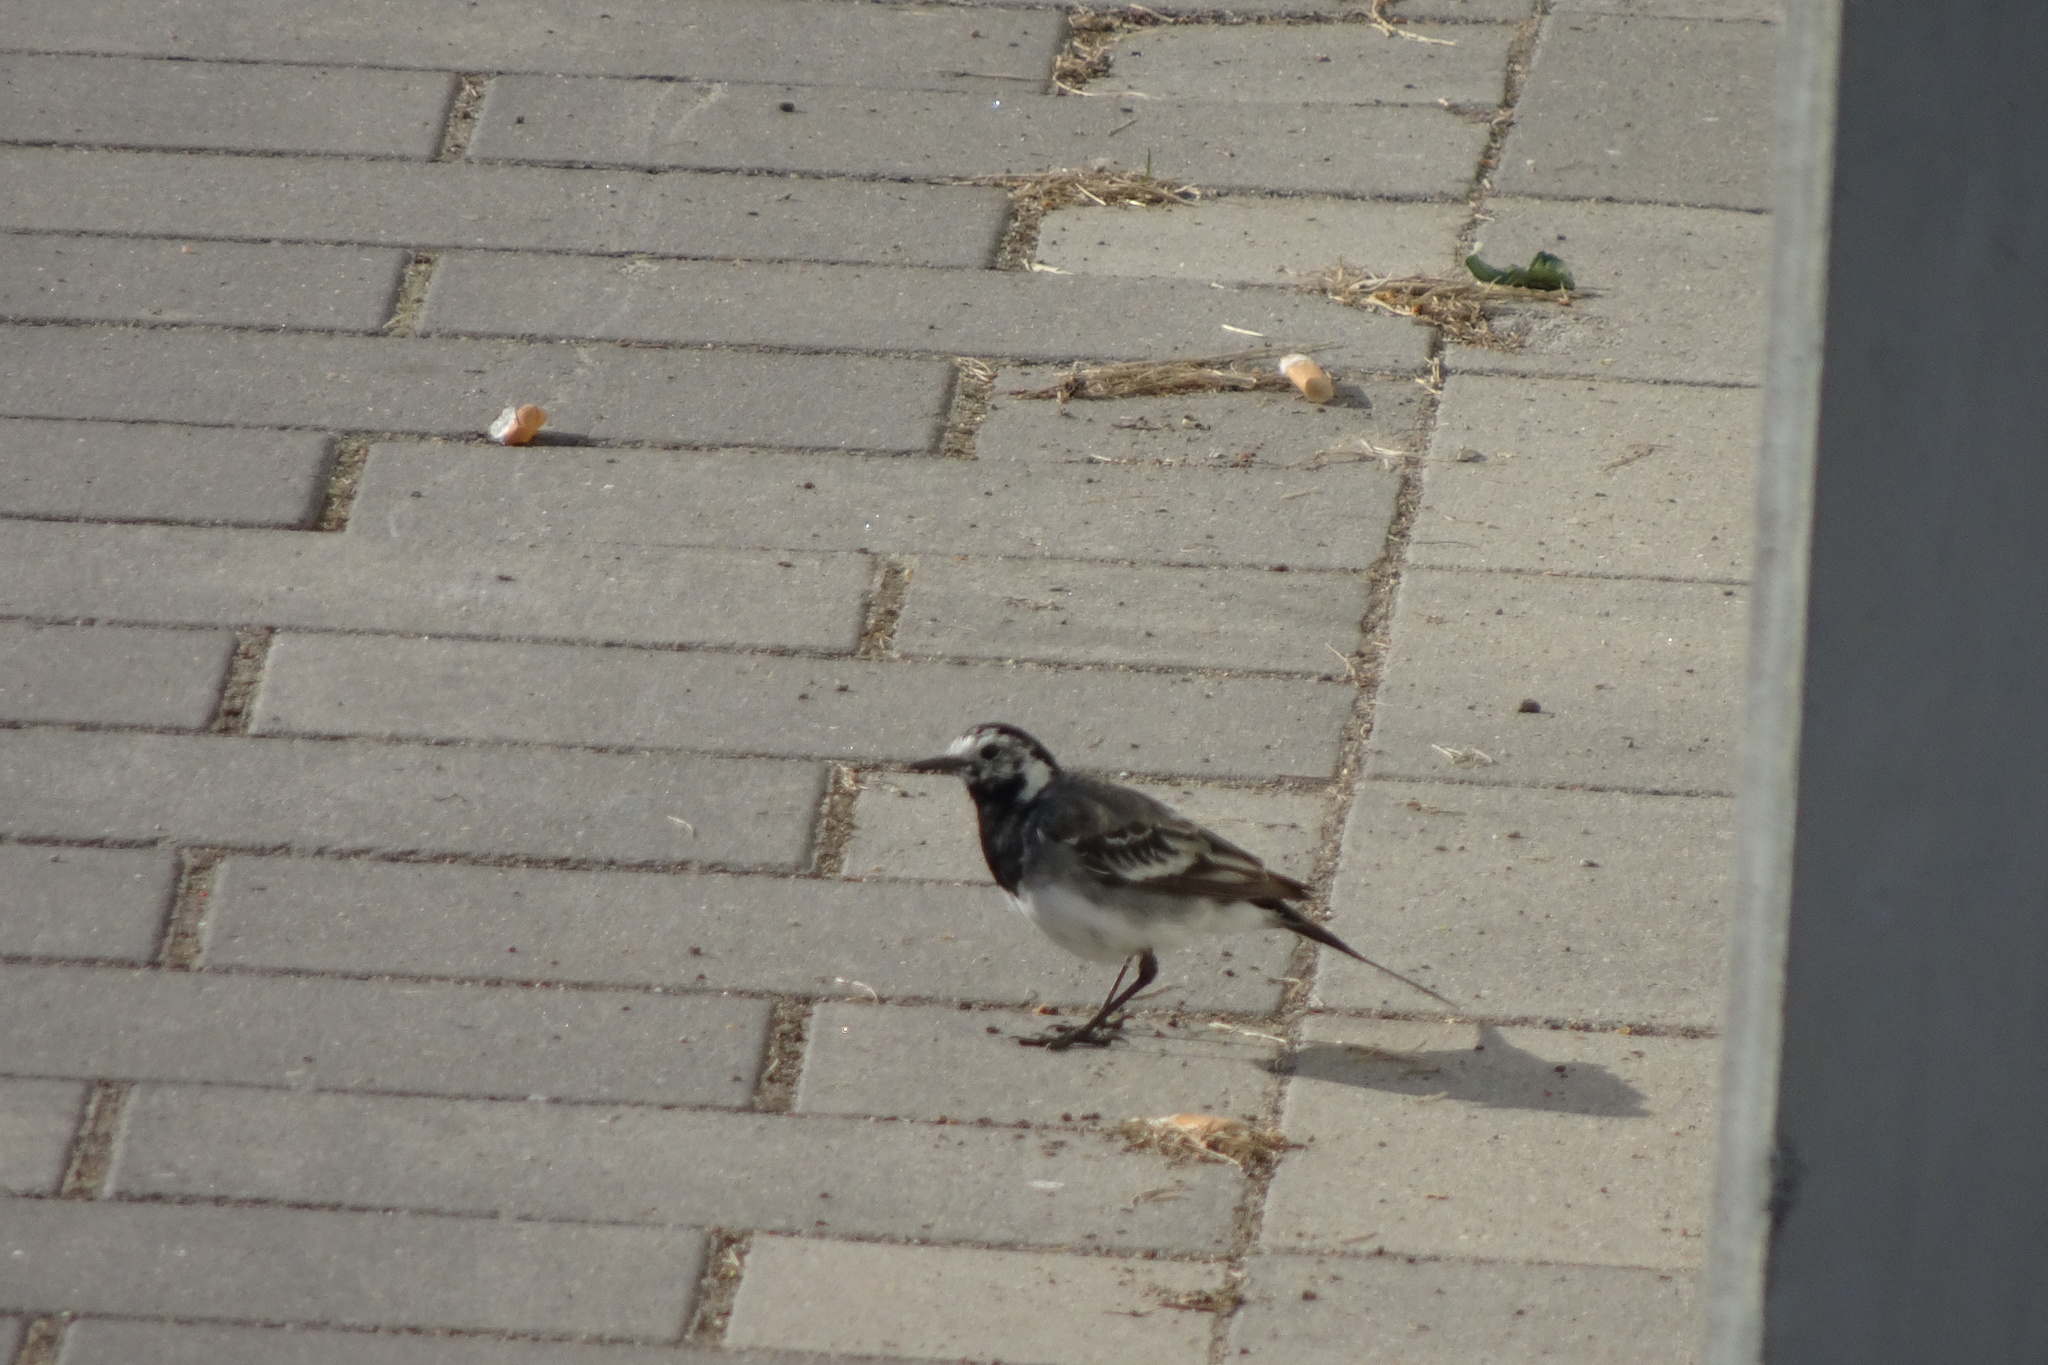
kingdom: Animalia
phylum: Chordata
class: Aves
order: Passeriformes
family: Motacillidae
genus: Motacilla
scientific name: Motacilla alba
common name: White wagtail
